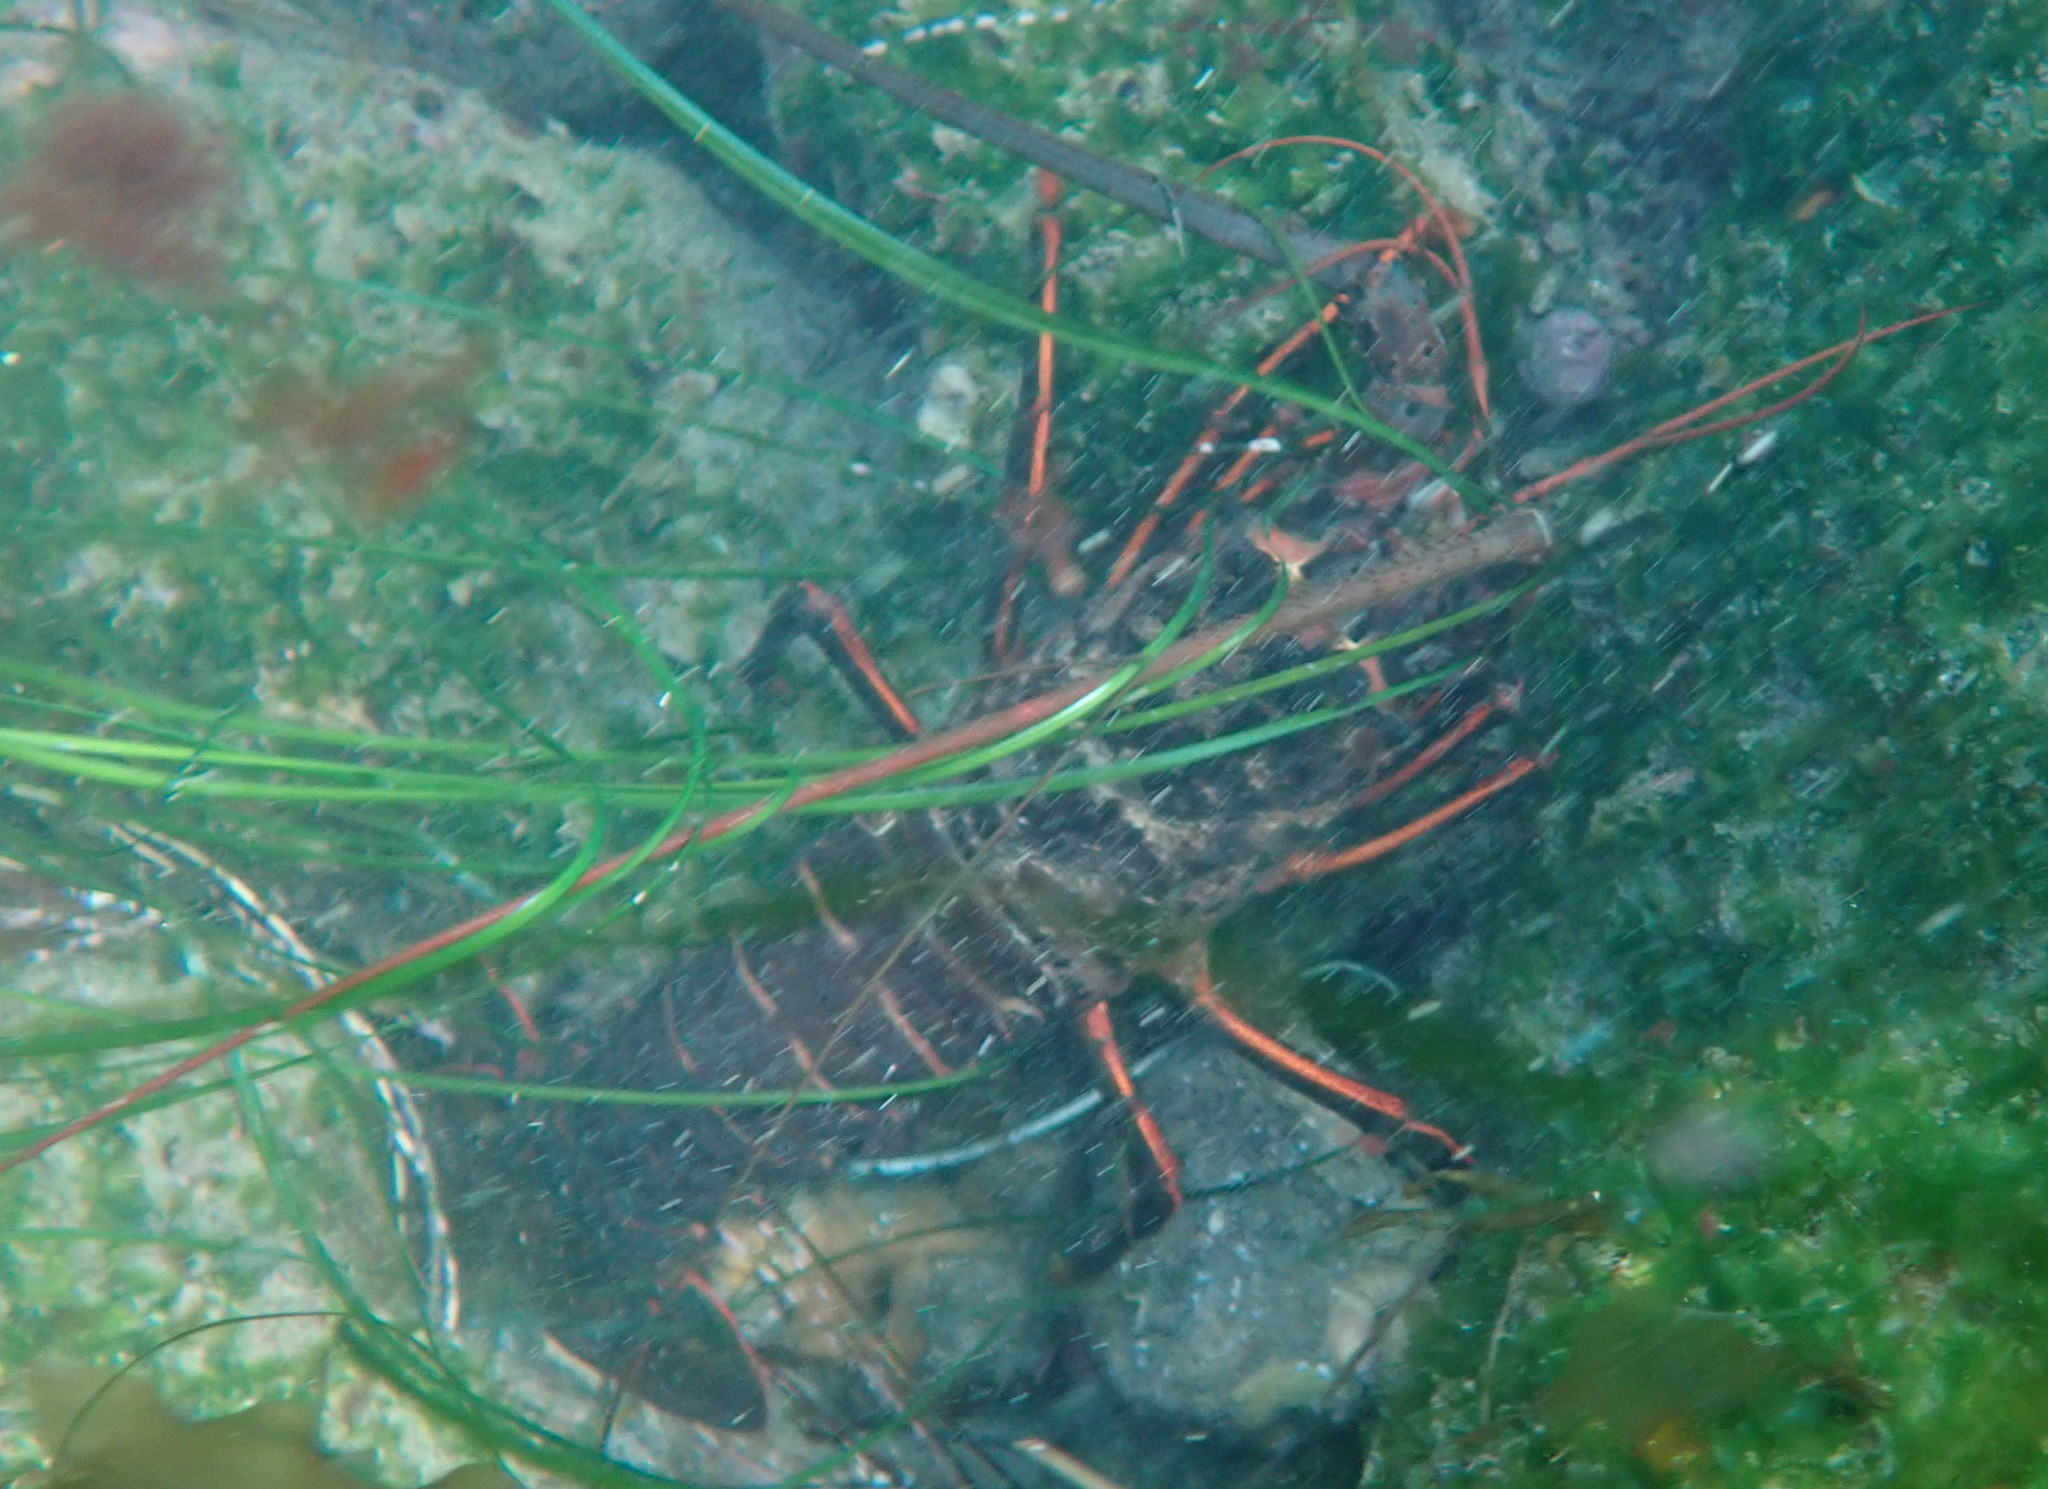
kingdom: Animalia
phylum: Arthropoda
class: Malacostraca
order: Decapoda
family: Palinuridae
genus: Panulirus
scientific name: Panulirus interruptus
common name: California spiny lobster
